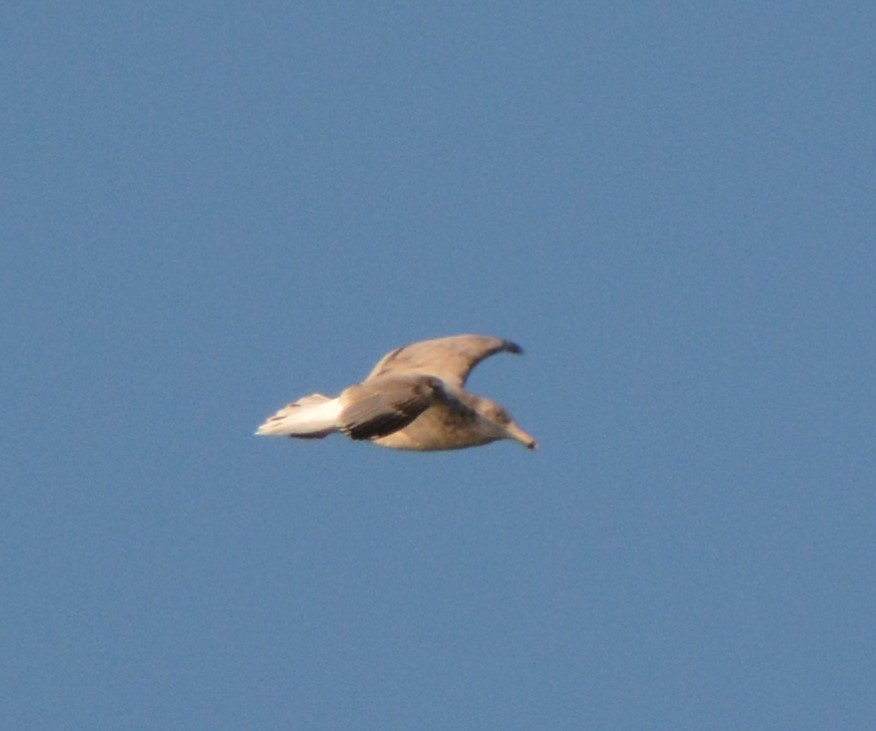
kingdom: Animalia
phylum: Chordata
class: Aves
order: Charadriiformes
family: Laridae
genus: Larus
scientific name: Larus argentatus
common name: Herring gull
